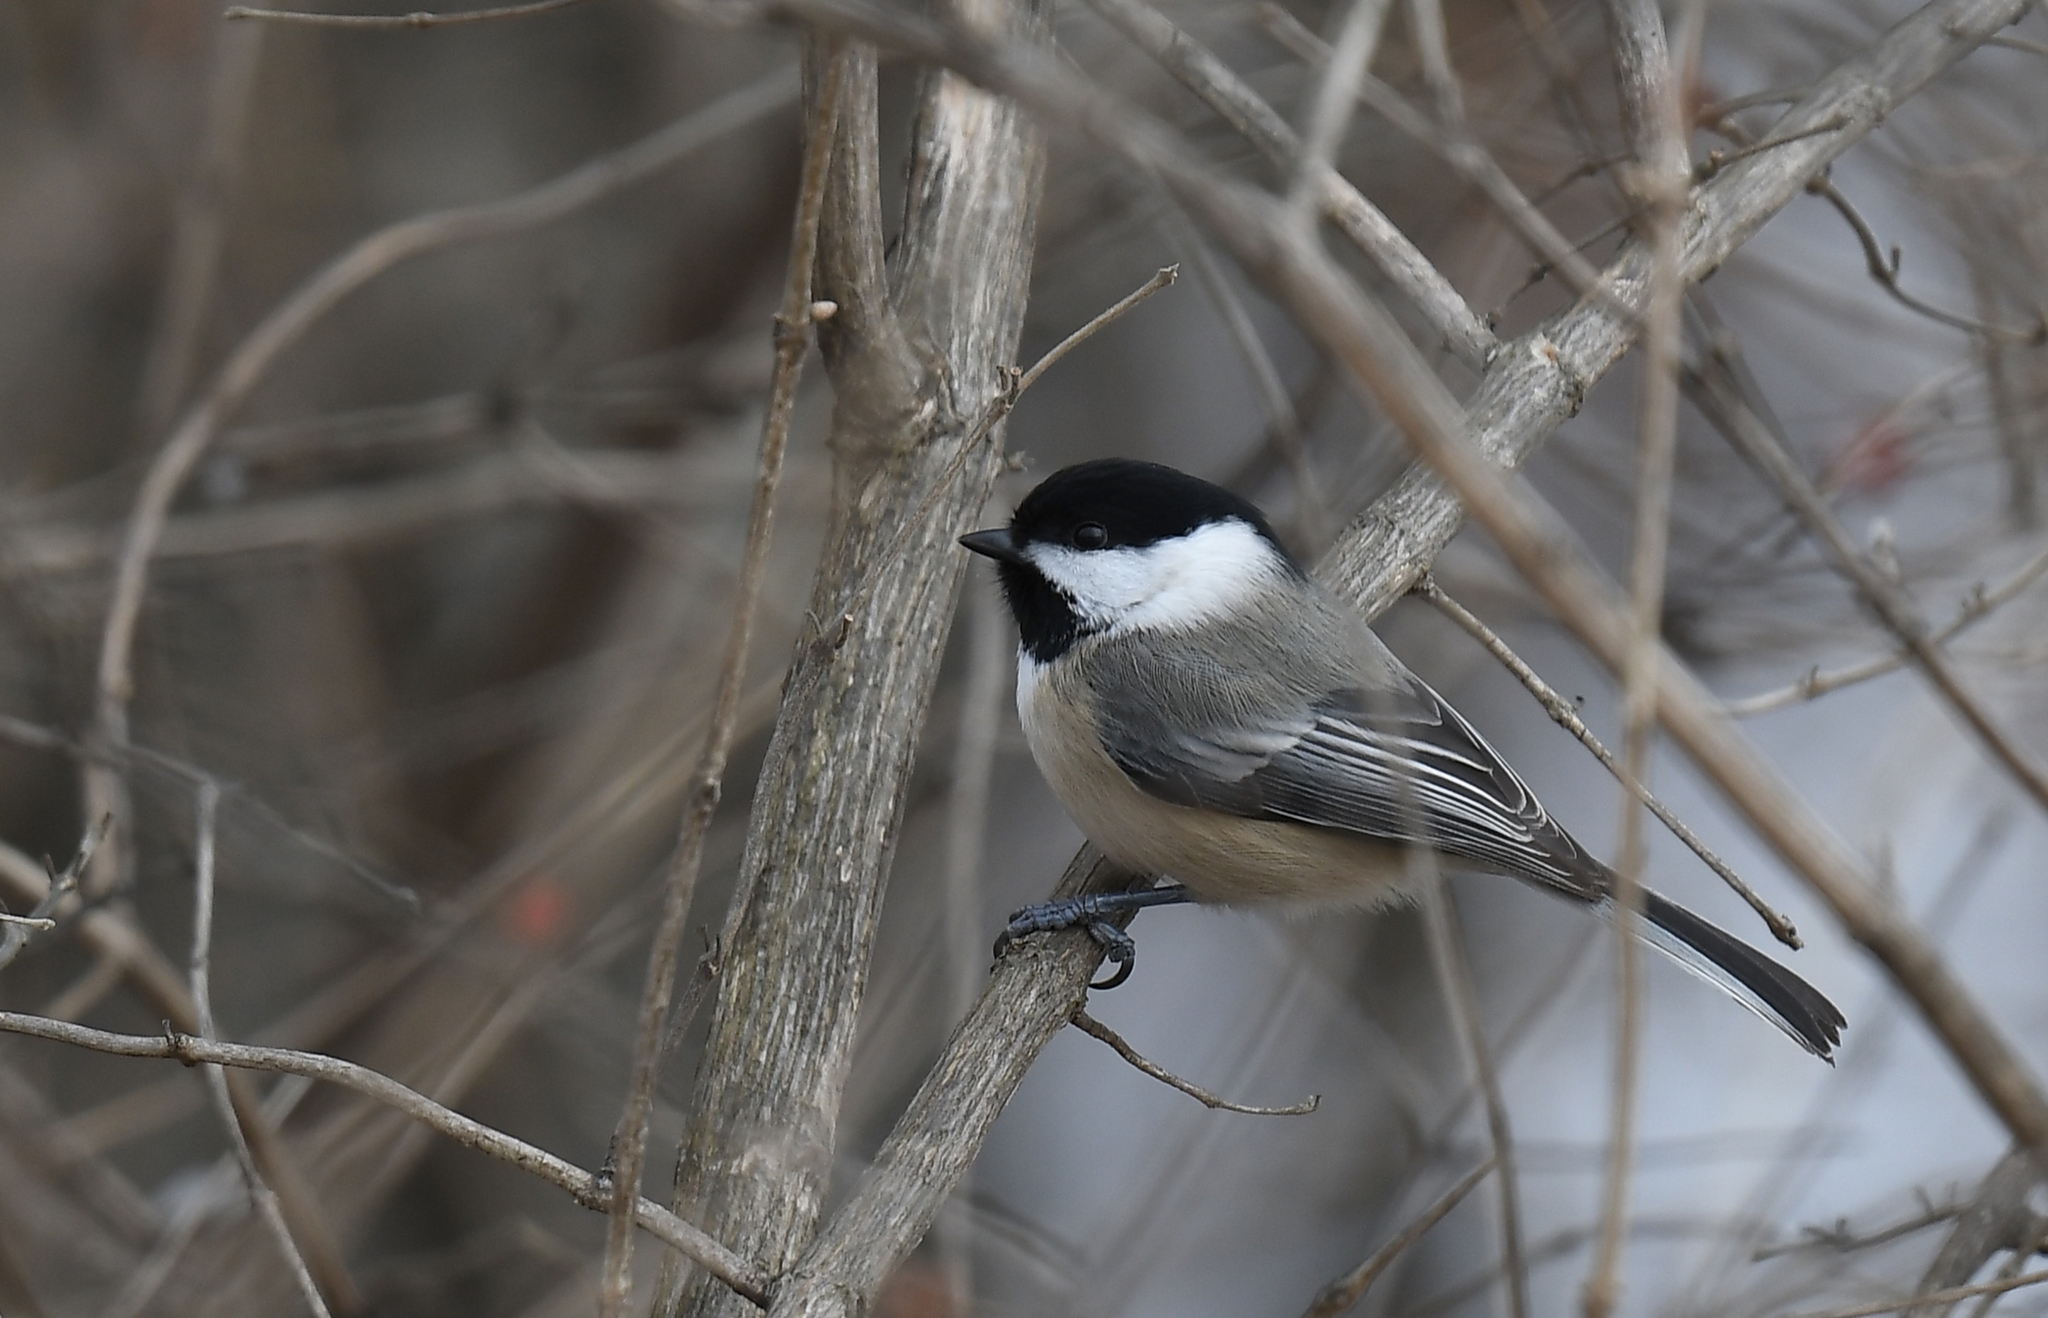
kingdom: Animalia
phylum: Chordata
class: Aves
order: Passeriformes
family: Paridae
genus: Poecile
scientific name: Poecile atricapillus
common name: Black-capped chickadee
